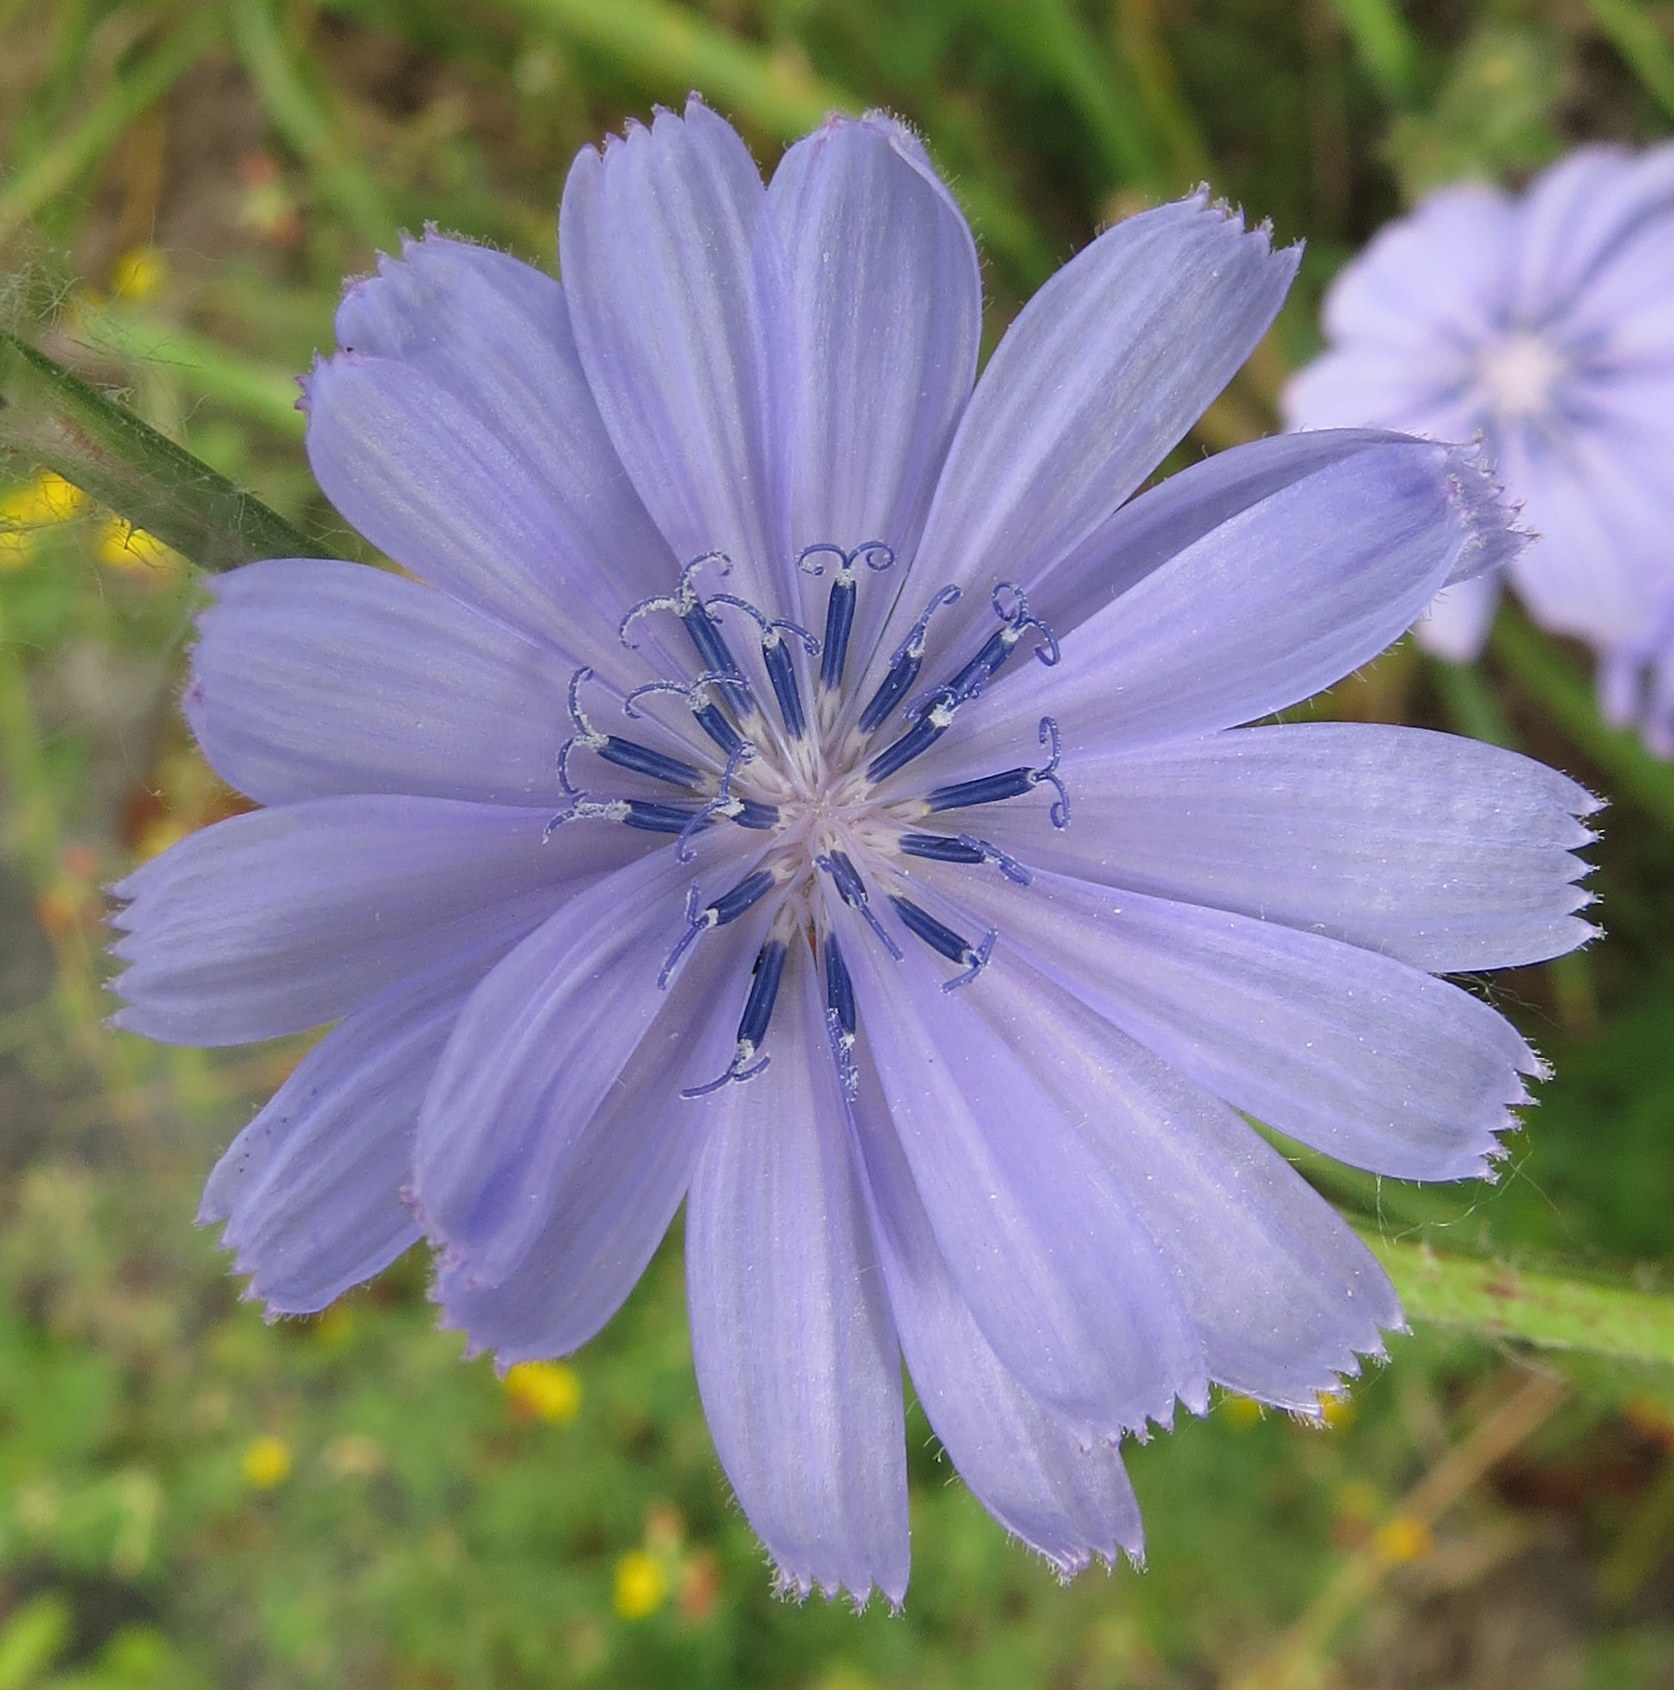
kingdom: Plantae
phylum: Tracheophyta
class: Magnoliopsida
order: Asterales
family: Asteraceae
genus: Cichorium
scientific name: Cichorium intybus
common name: Chicory
